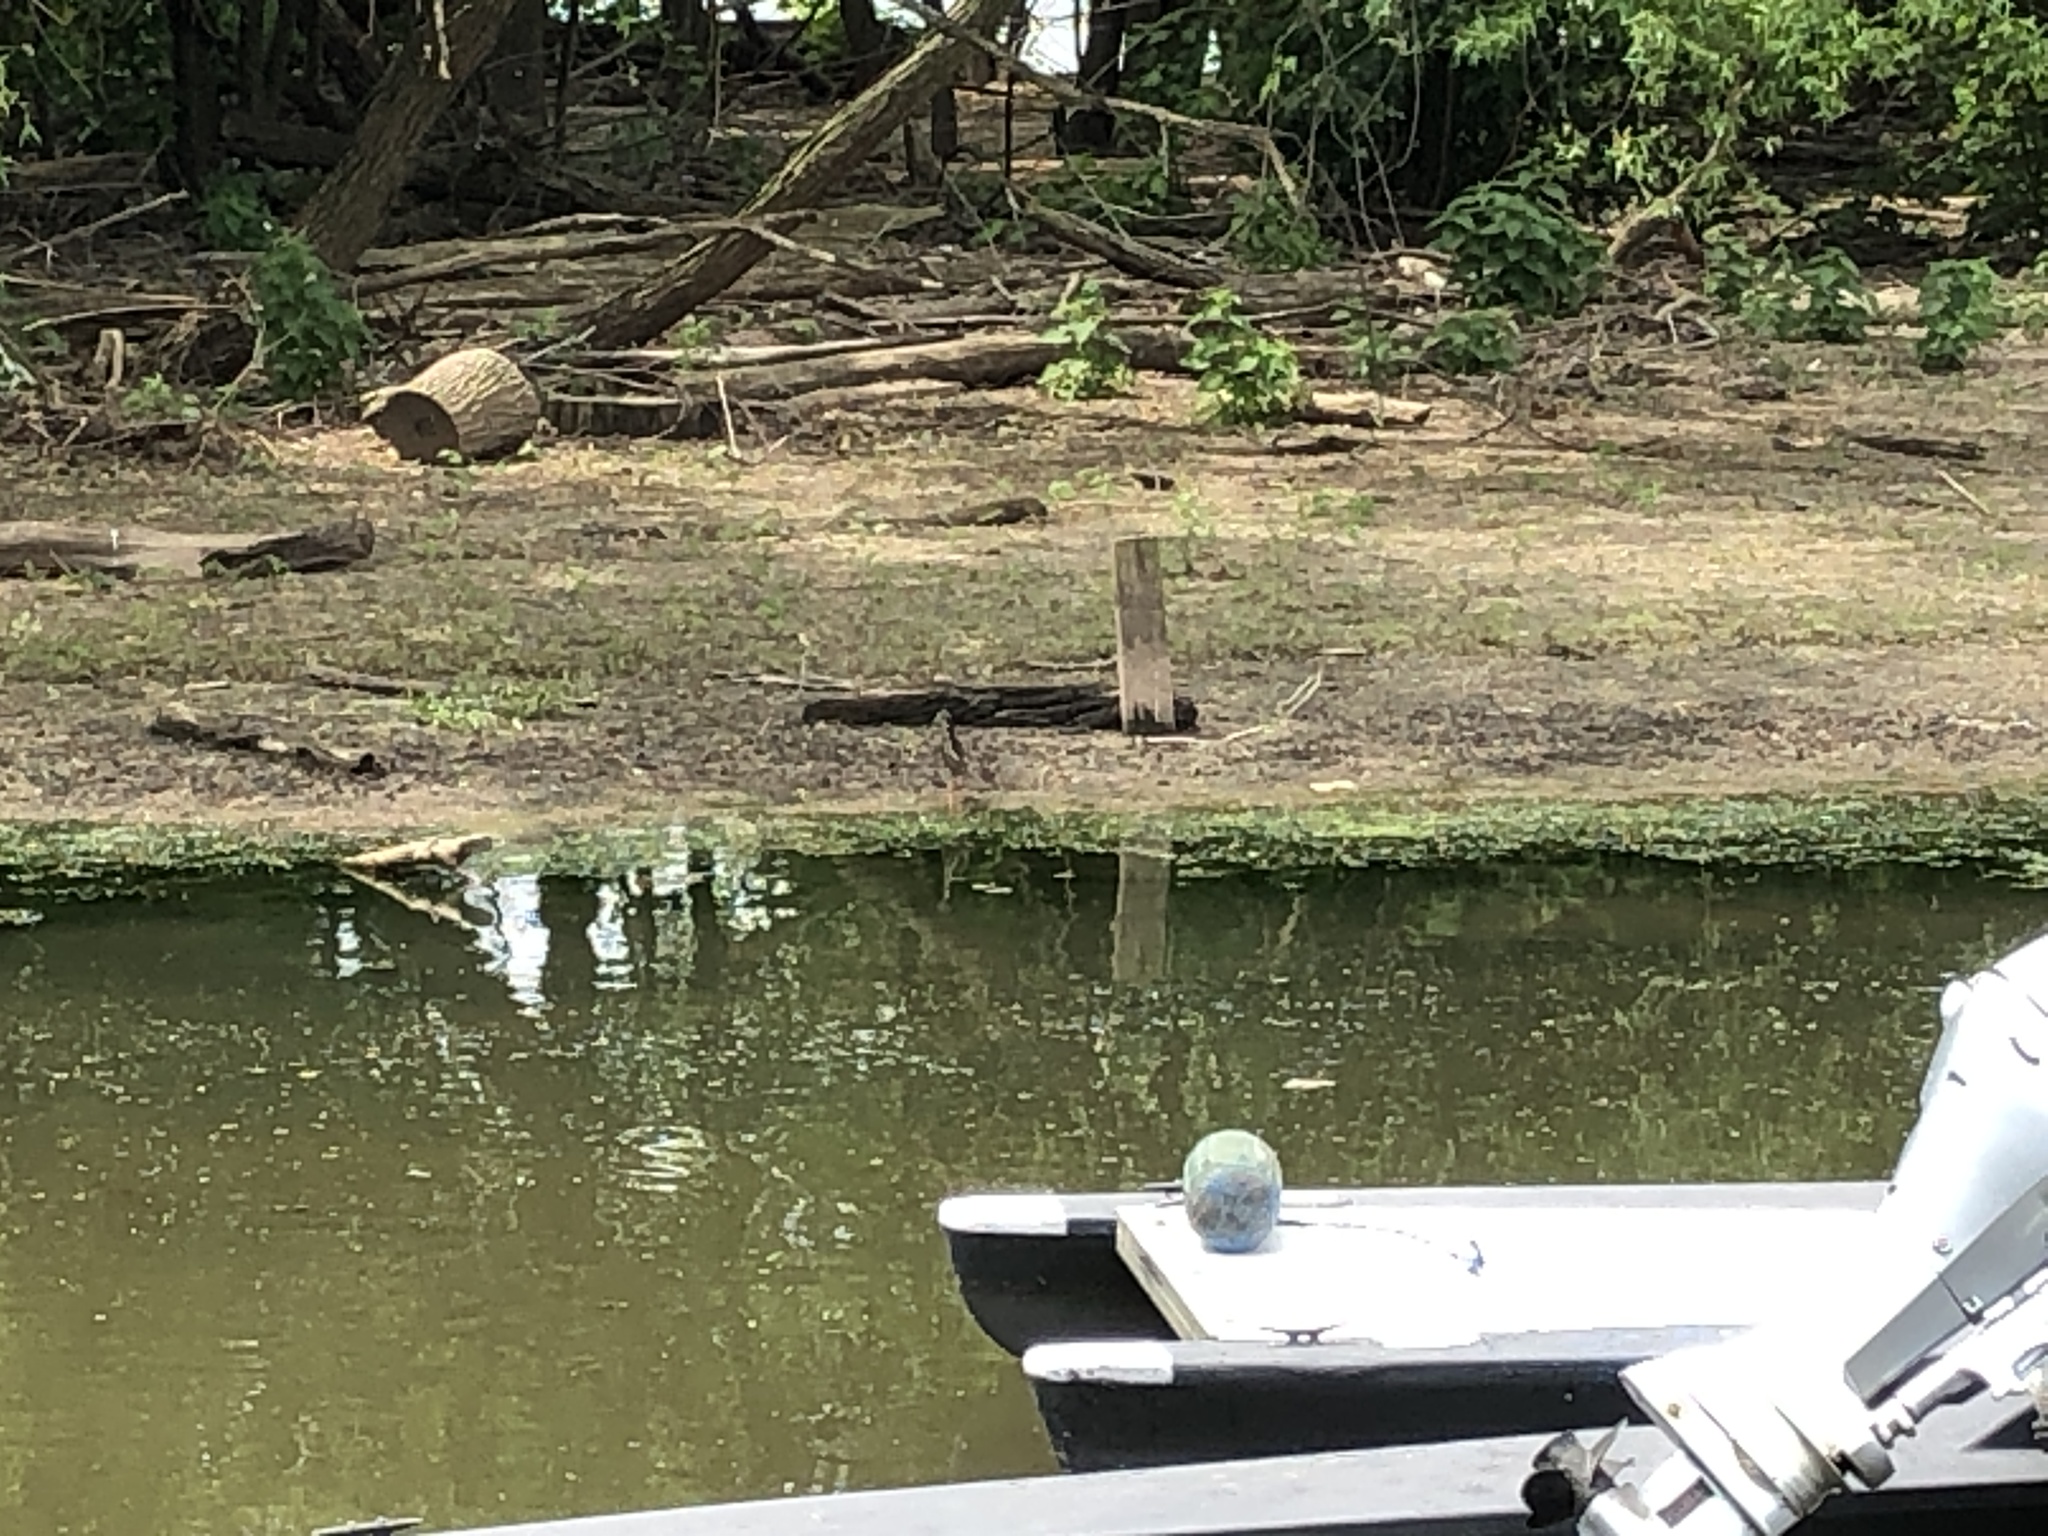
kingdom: Animalia
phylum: Chordata
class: Aves
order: Pelecaniformes
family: Ardeidae
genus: Butorides
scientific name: Butorides virescens
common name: Green heron
